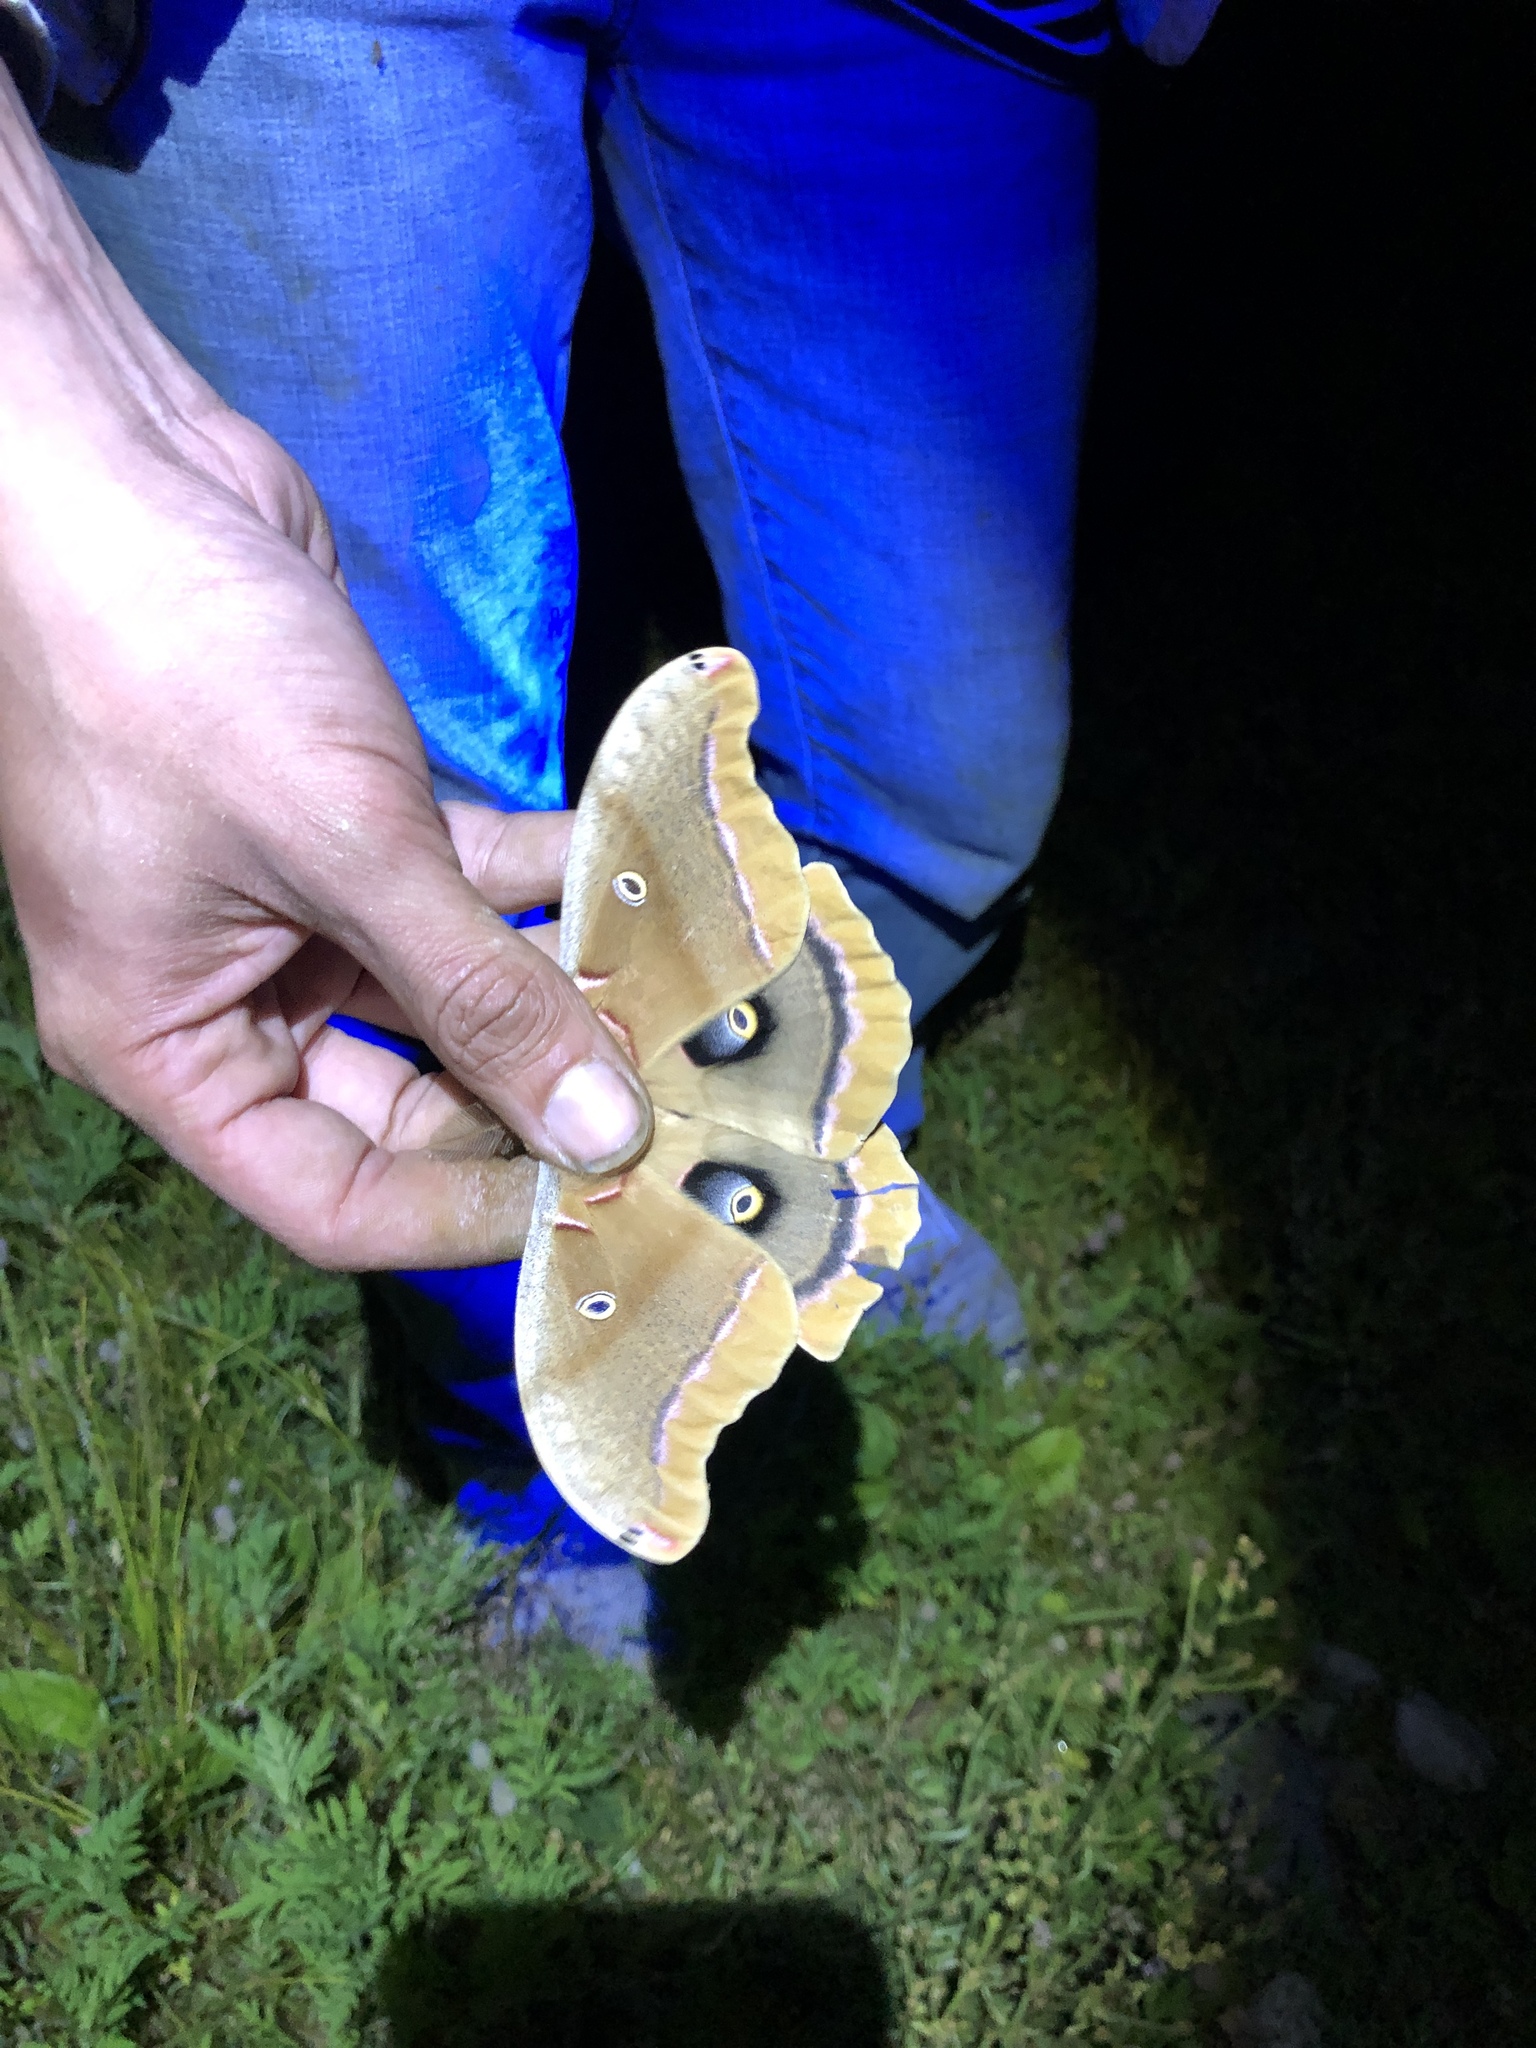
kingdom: Animalia
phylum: Arthropoda
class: Insecta
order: Lepidoptera
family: Saturniidae
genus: Antheraea
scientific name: Antheraea polyphemus
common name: Polyphemus moth
